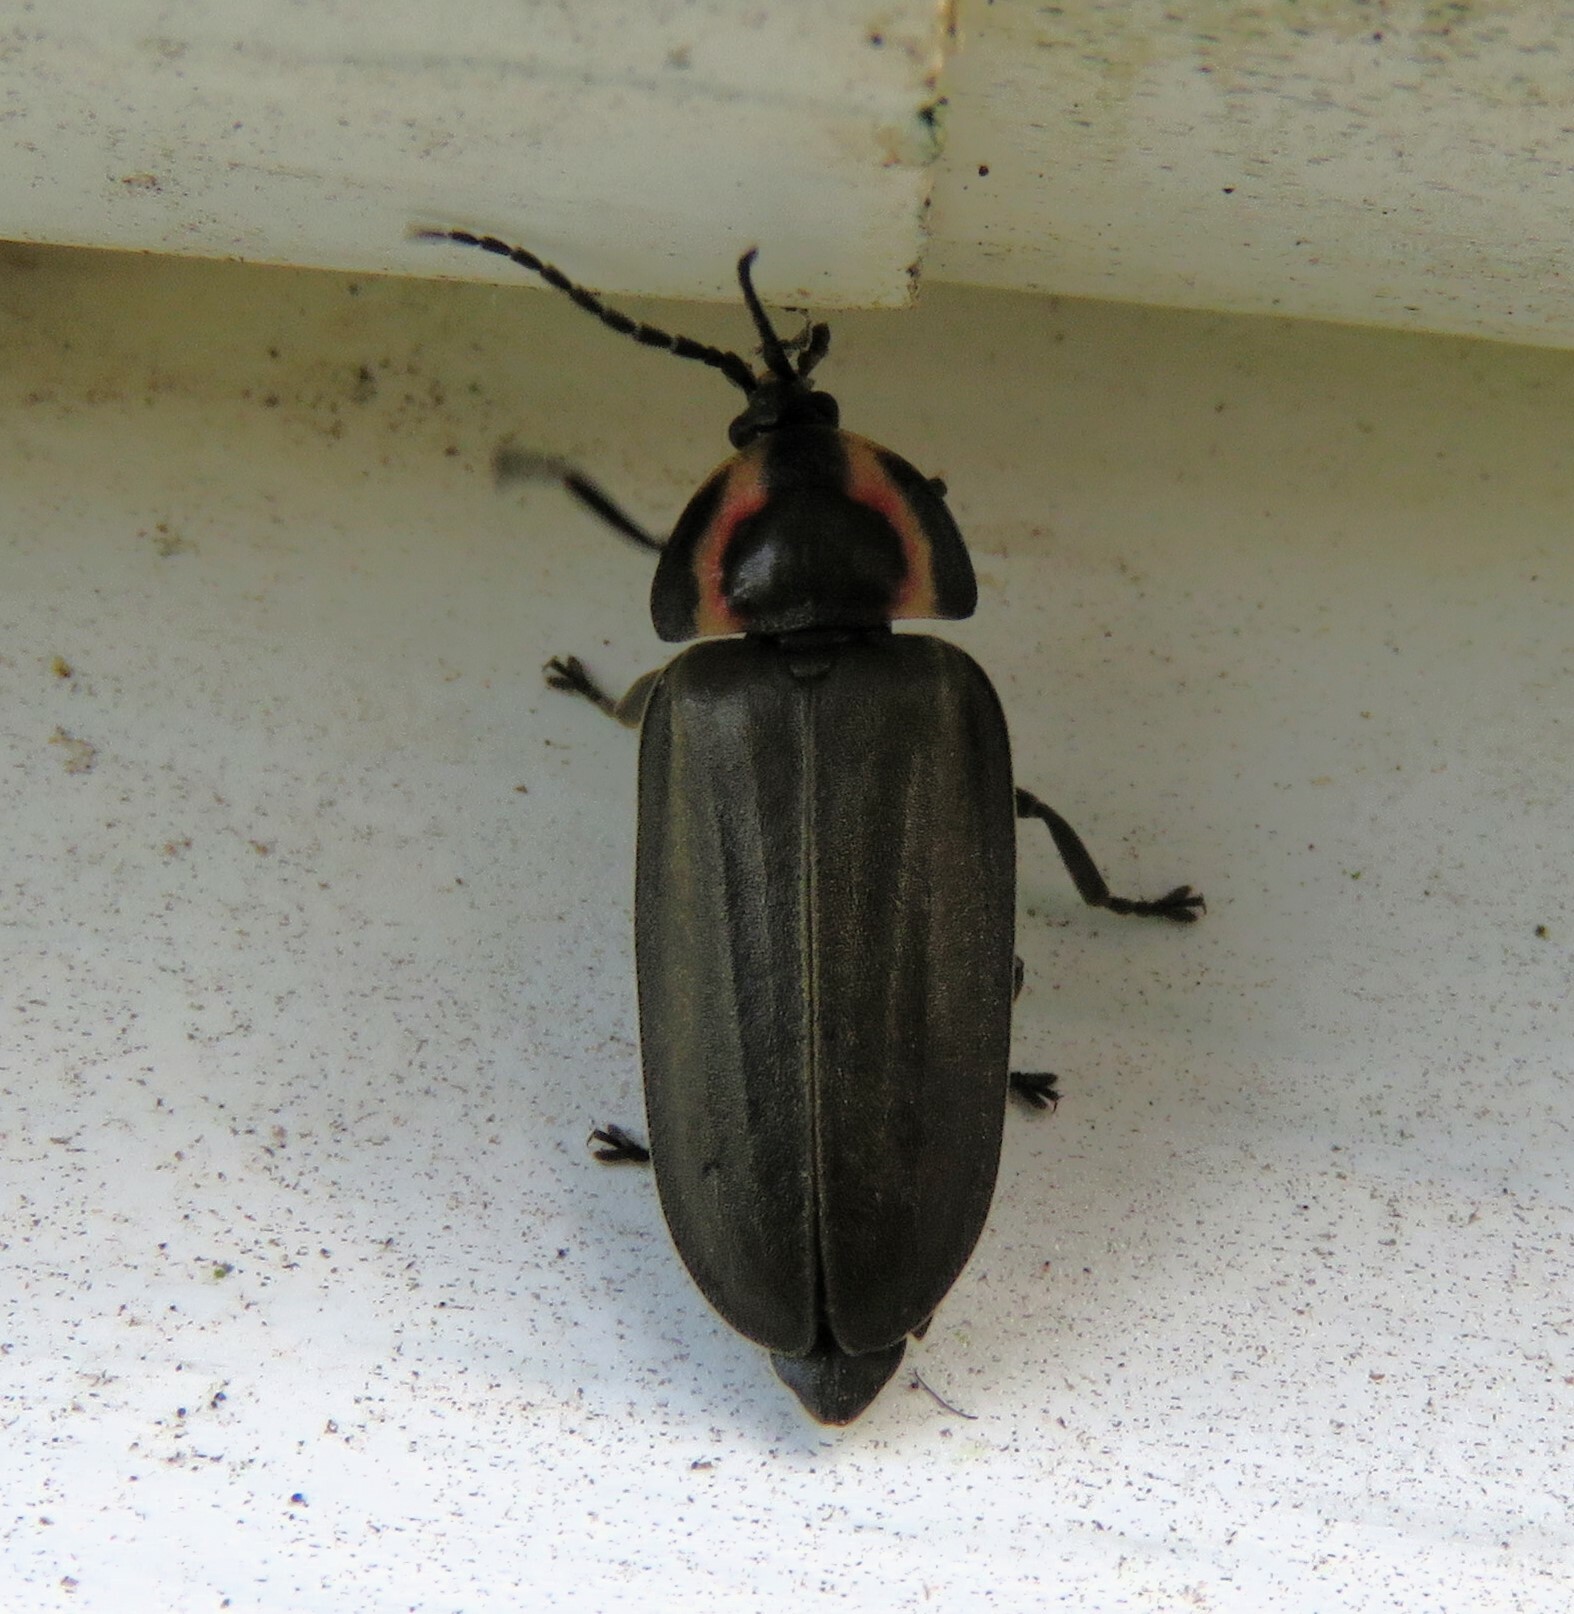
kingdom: Animalia
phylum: Arthropoda
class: Insecta
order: Coleoptera
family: Lampyridae
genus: Photinus
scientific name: Photinus corrusca
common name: Winter firefly
